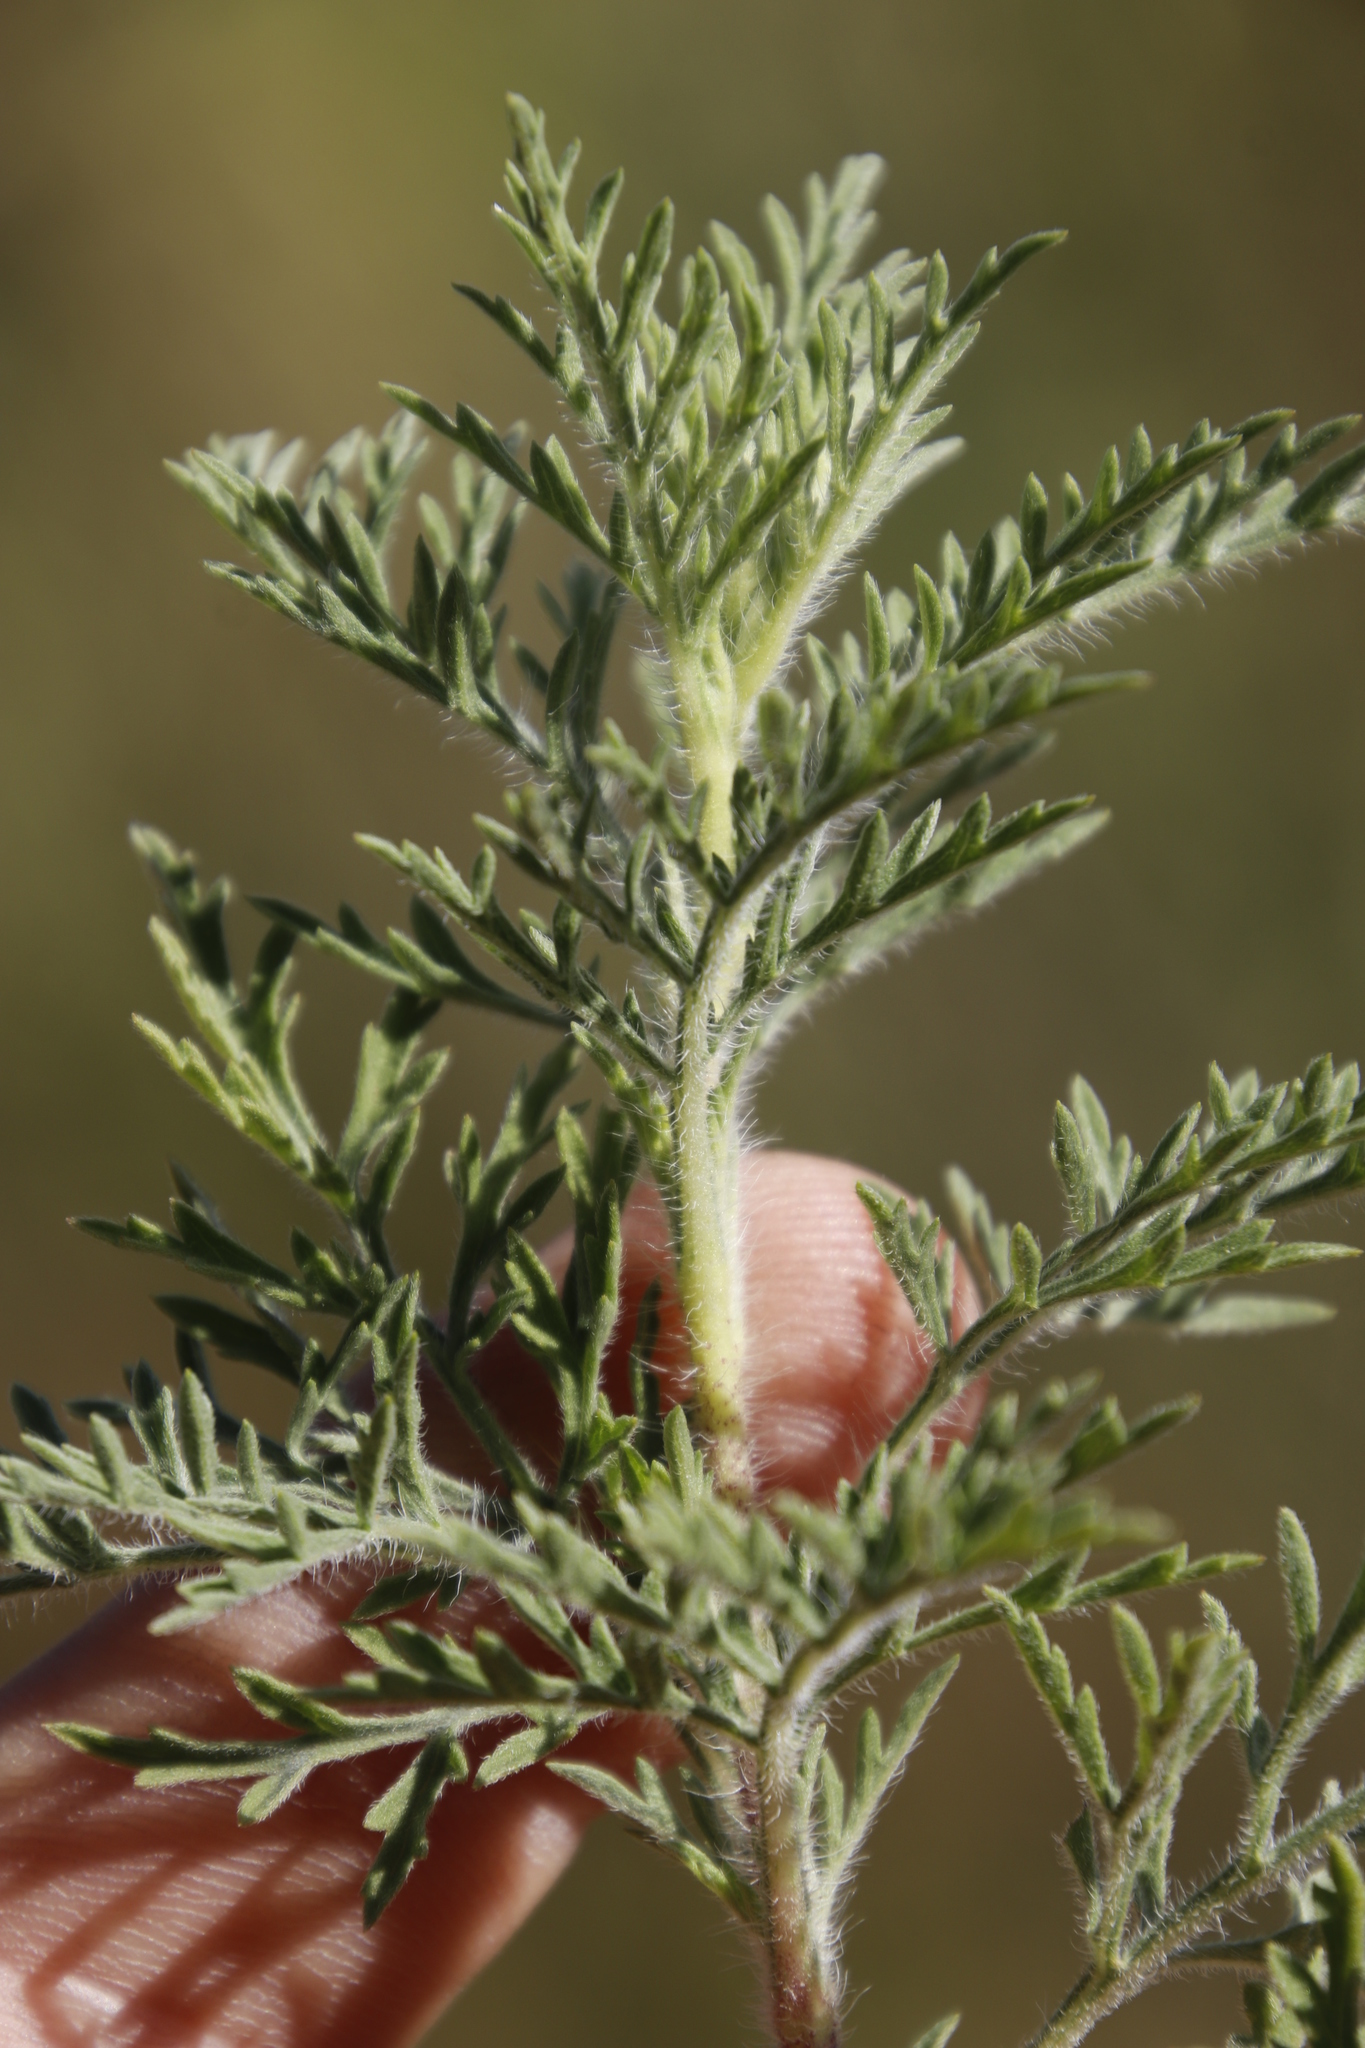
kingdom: Plantae
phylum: Tracheophyta
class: Magnoliopsida
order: Asterales
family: Asteraceae
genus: Ambrosia
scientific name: Ambrosia tenuifolia
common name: Lacy ambrosia
